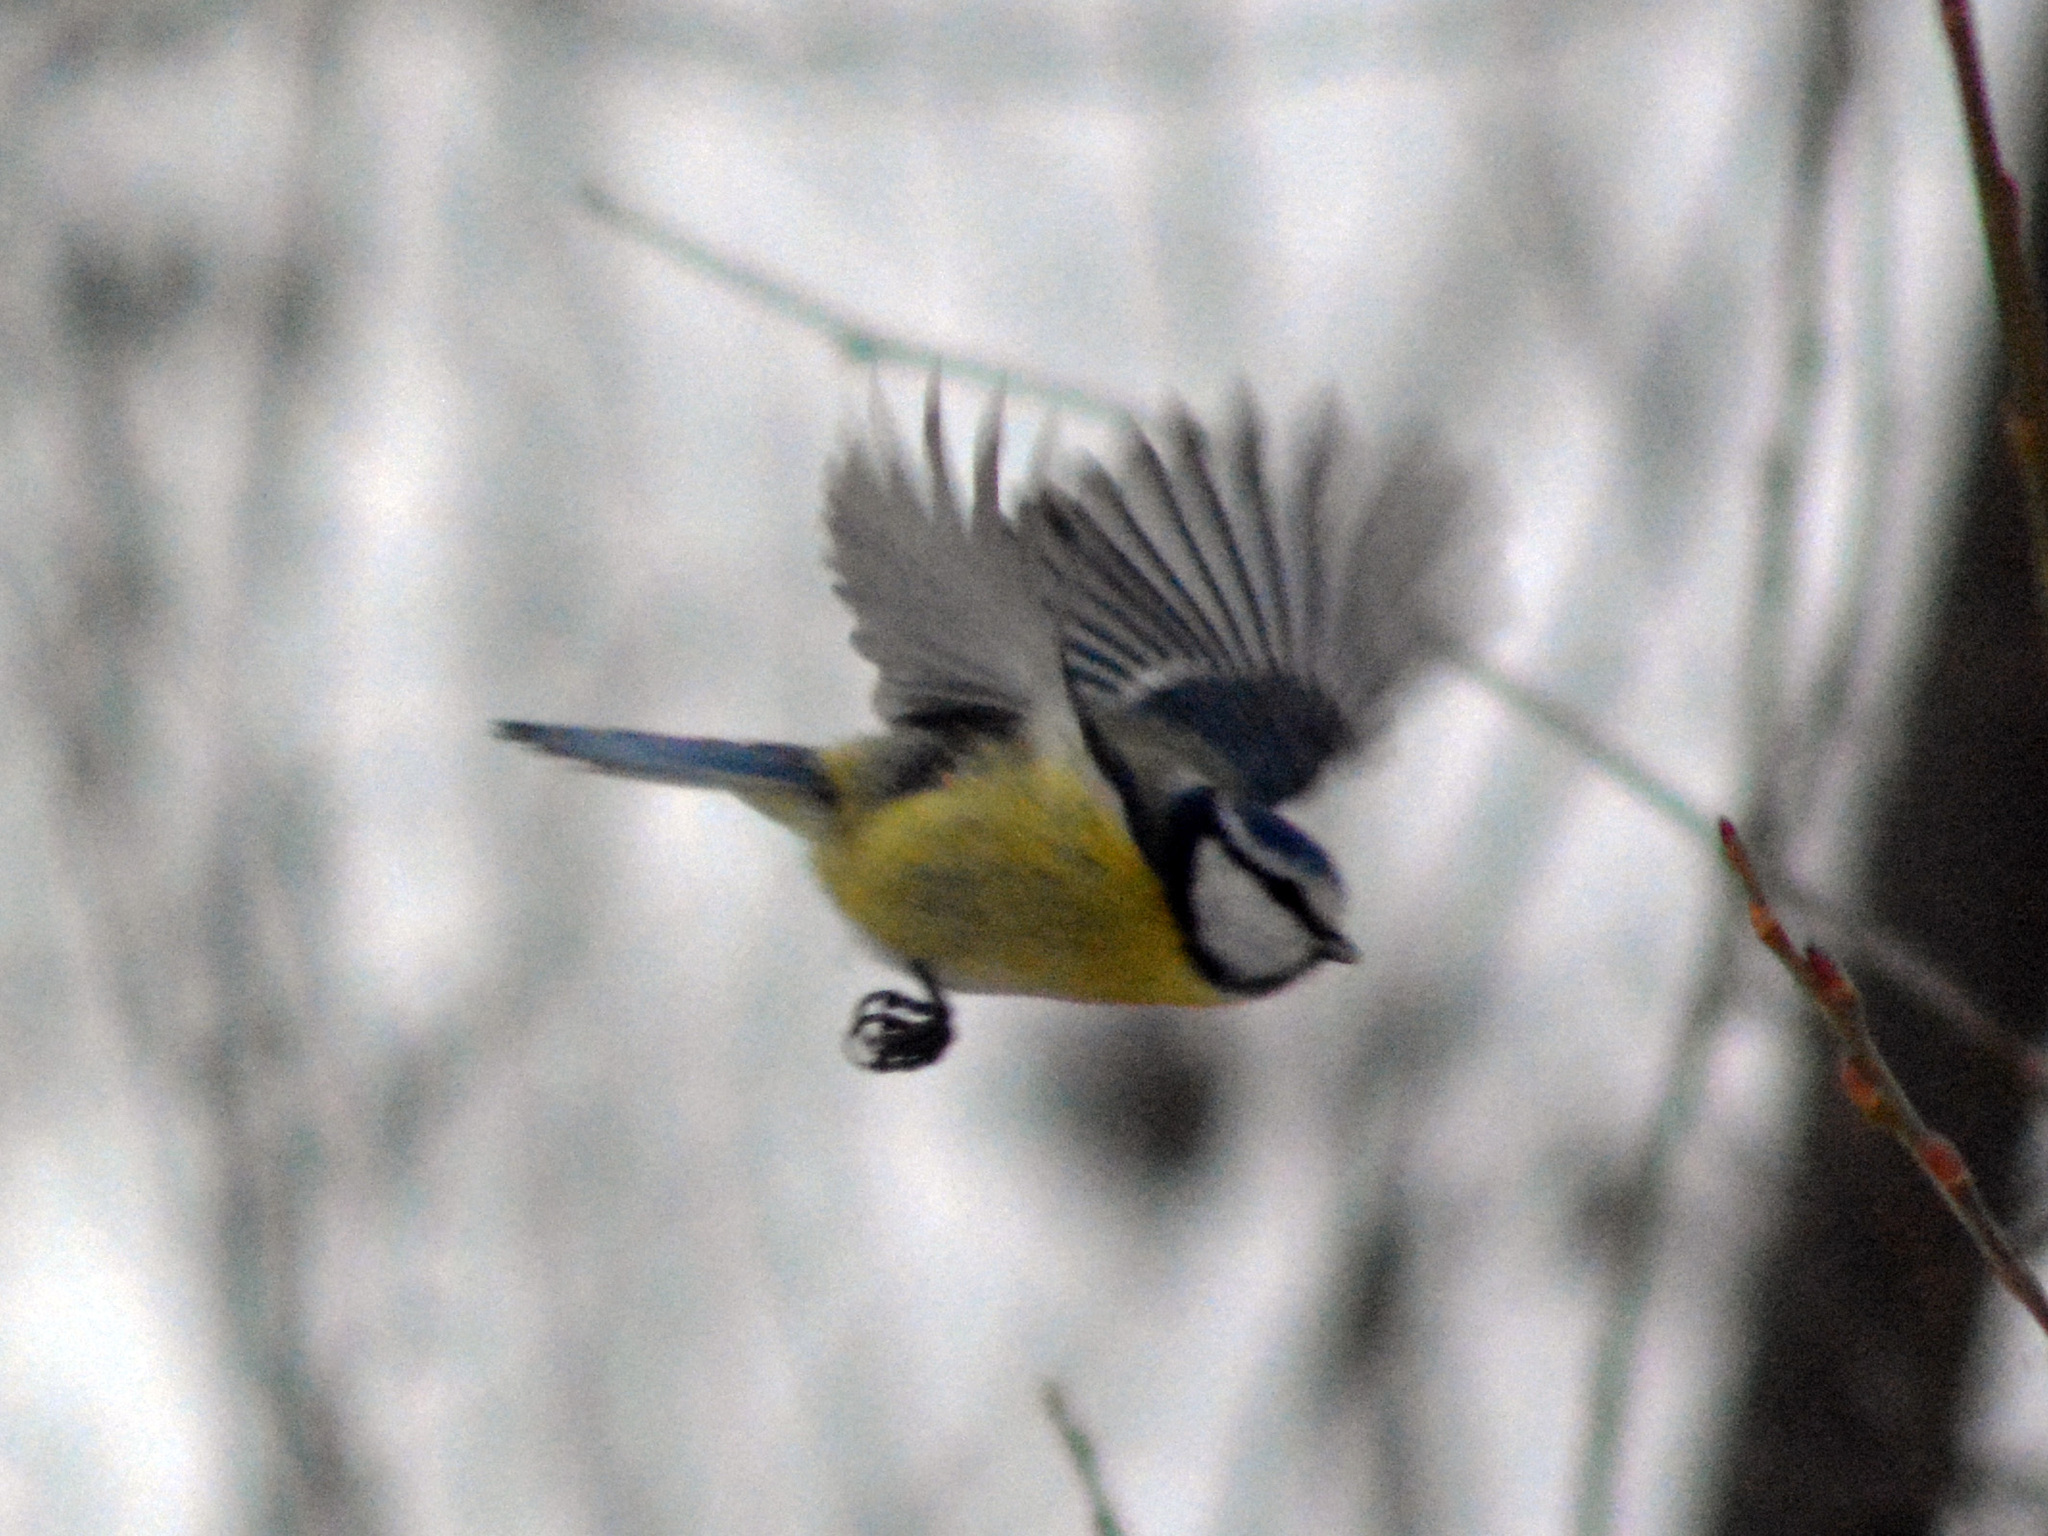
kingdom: Animalia
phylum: Chordata
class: Aves
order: Passeriformes
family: Paridae
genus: Cyanistes
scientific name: Cyanistes caeruleus
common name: Eurasian blue tit
